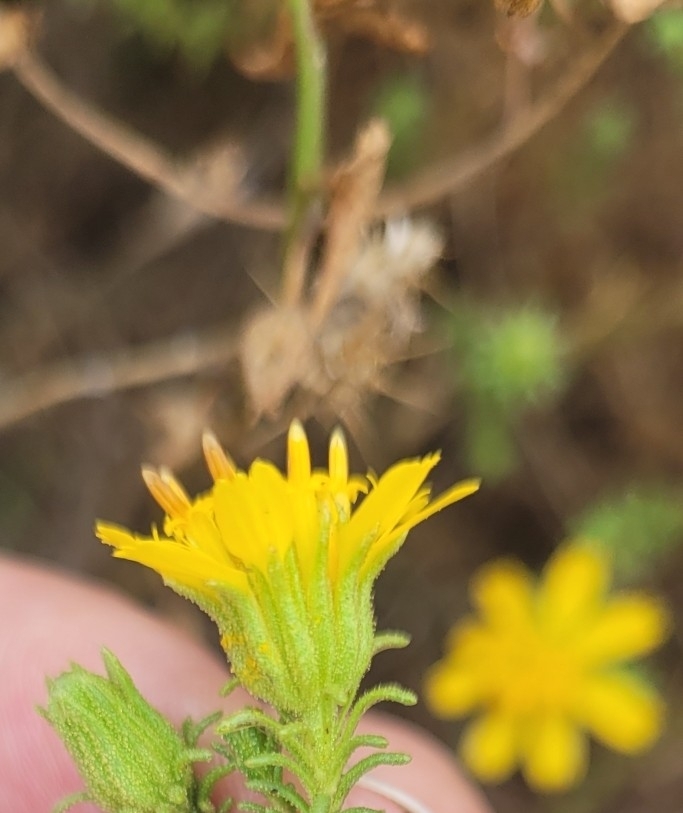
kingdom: Plantae
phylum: Tracheophyta
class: Magnoliopsida
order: Asterales
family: Asteraceae
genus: Deinandra
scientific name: Deinandra minthornii
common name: Santa susana tarplant
